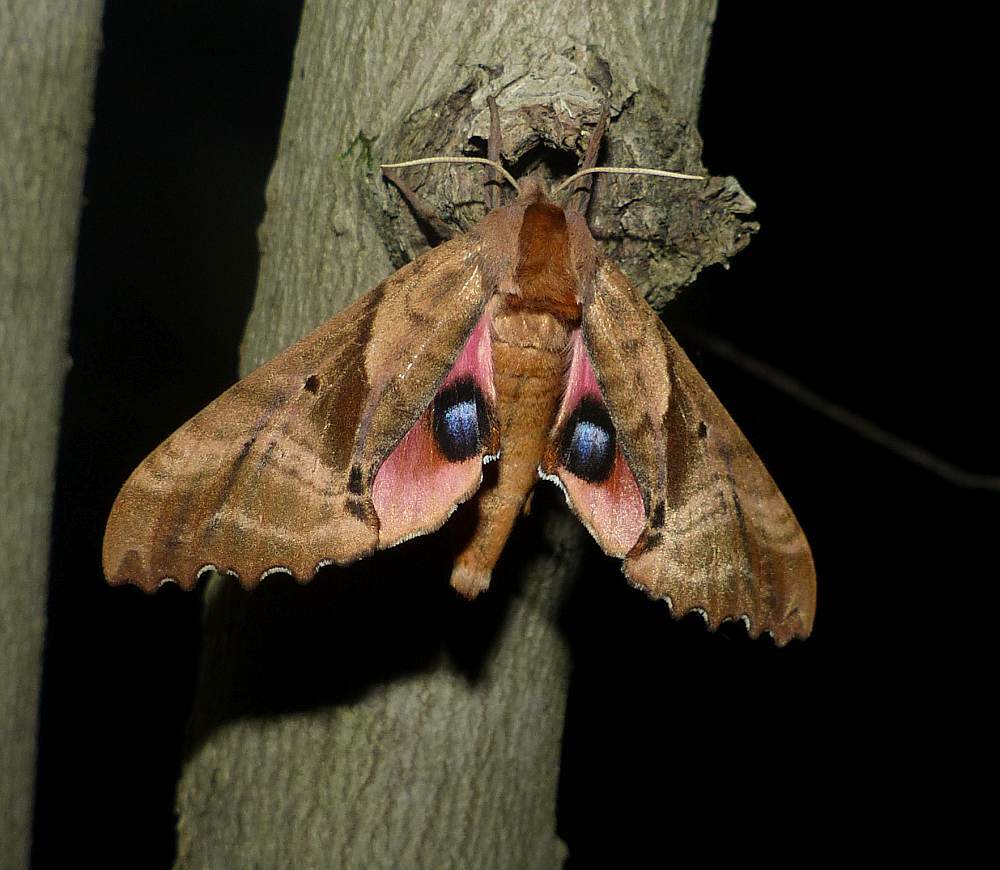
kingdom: Animalia
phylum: Arthropoda
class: Insecta
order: Lepidoptera
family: Sphingidae
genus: Paonias
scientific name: Paonias excaecata
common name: Blind-eyed sphinx
